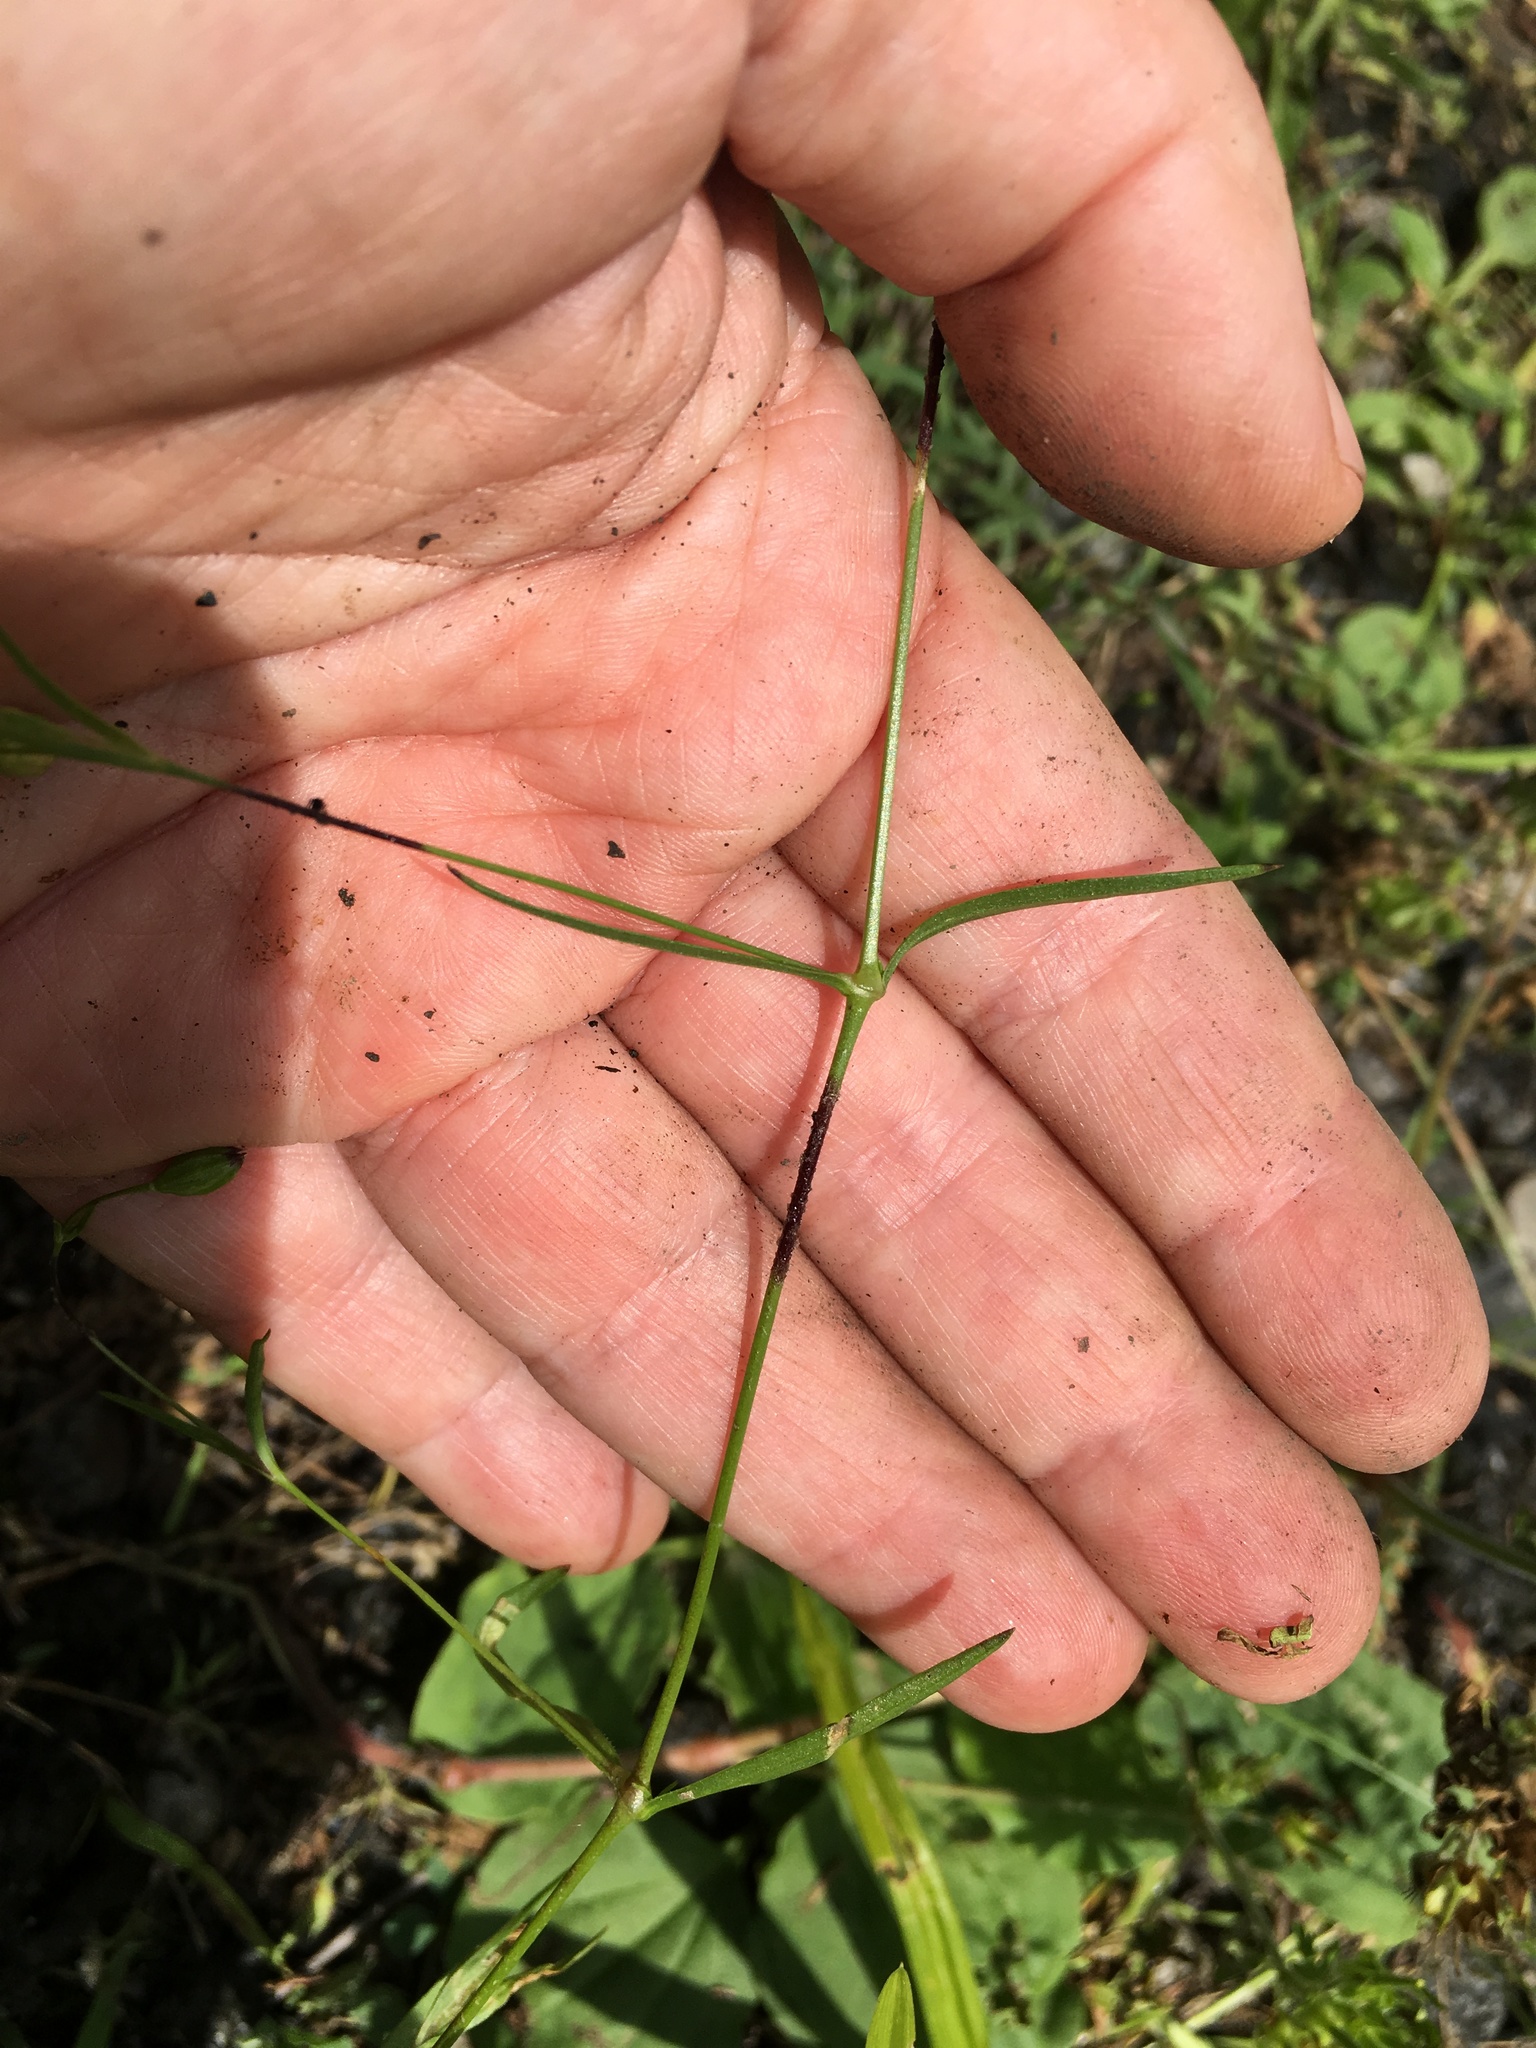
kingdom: Plantae
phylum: Tracheophyta
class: Magnoliopsida
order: Caryophyllales
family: Caryophyllaceae
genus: Silene
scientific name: Silene antirrhina
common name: Sleepy catchfly
